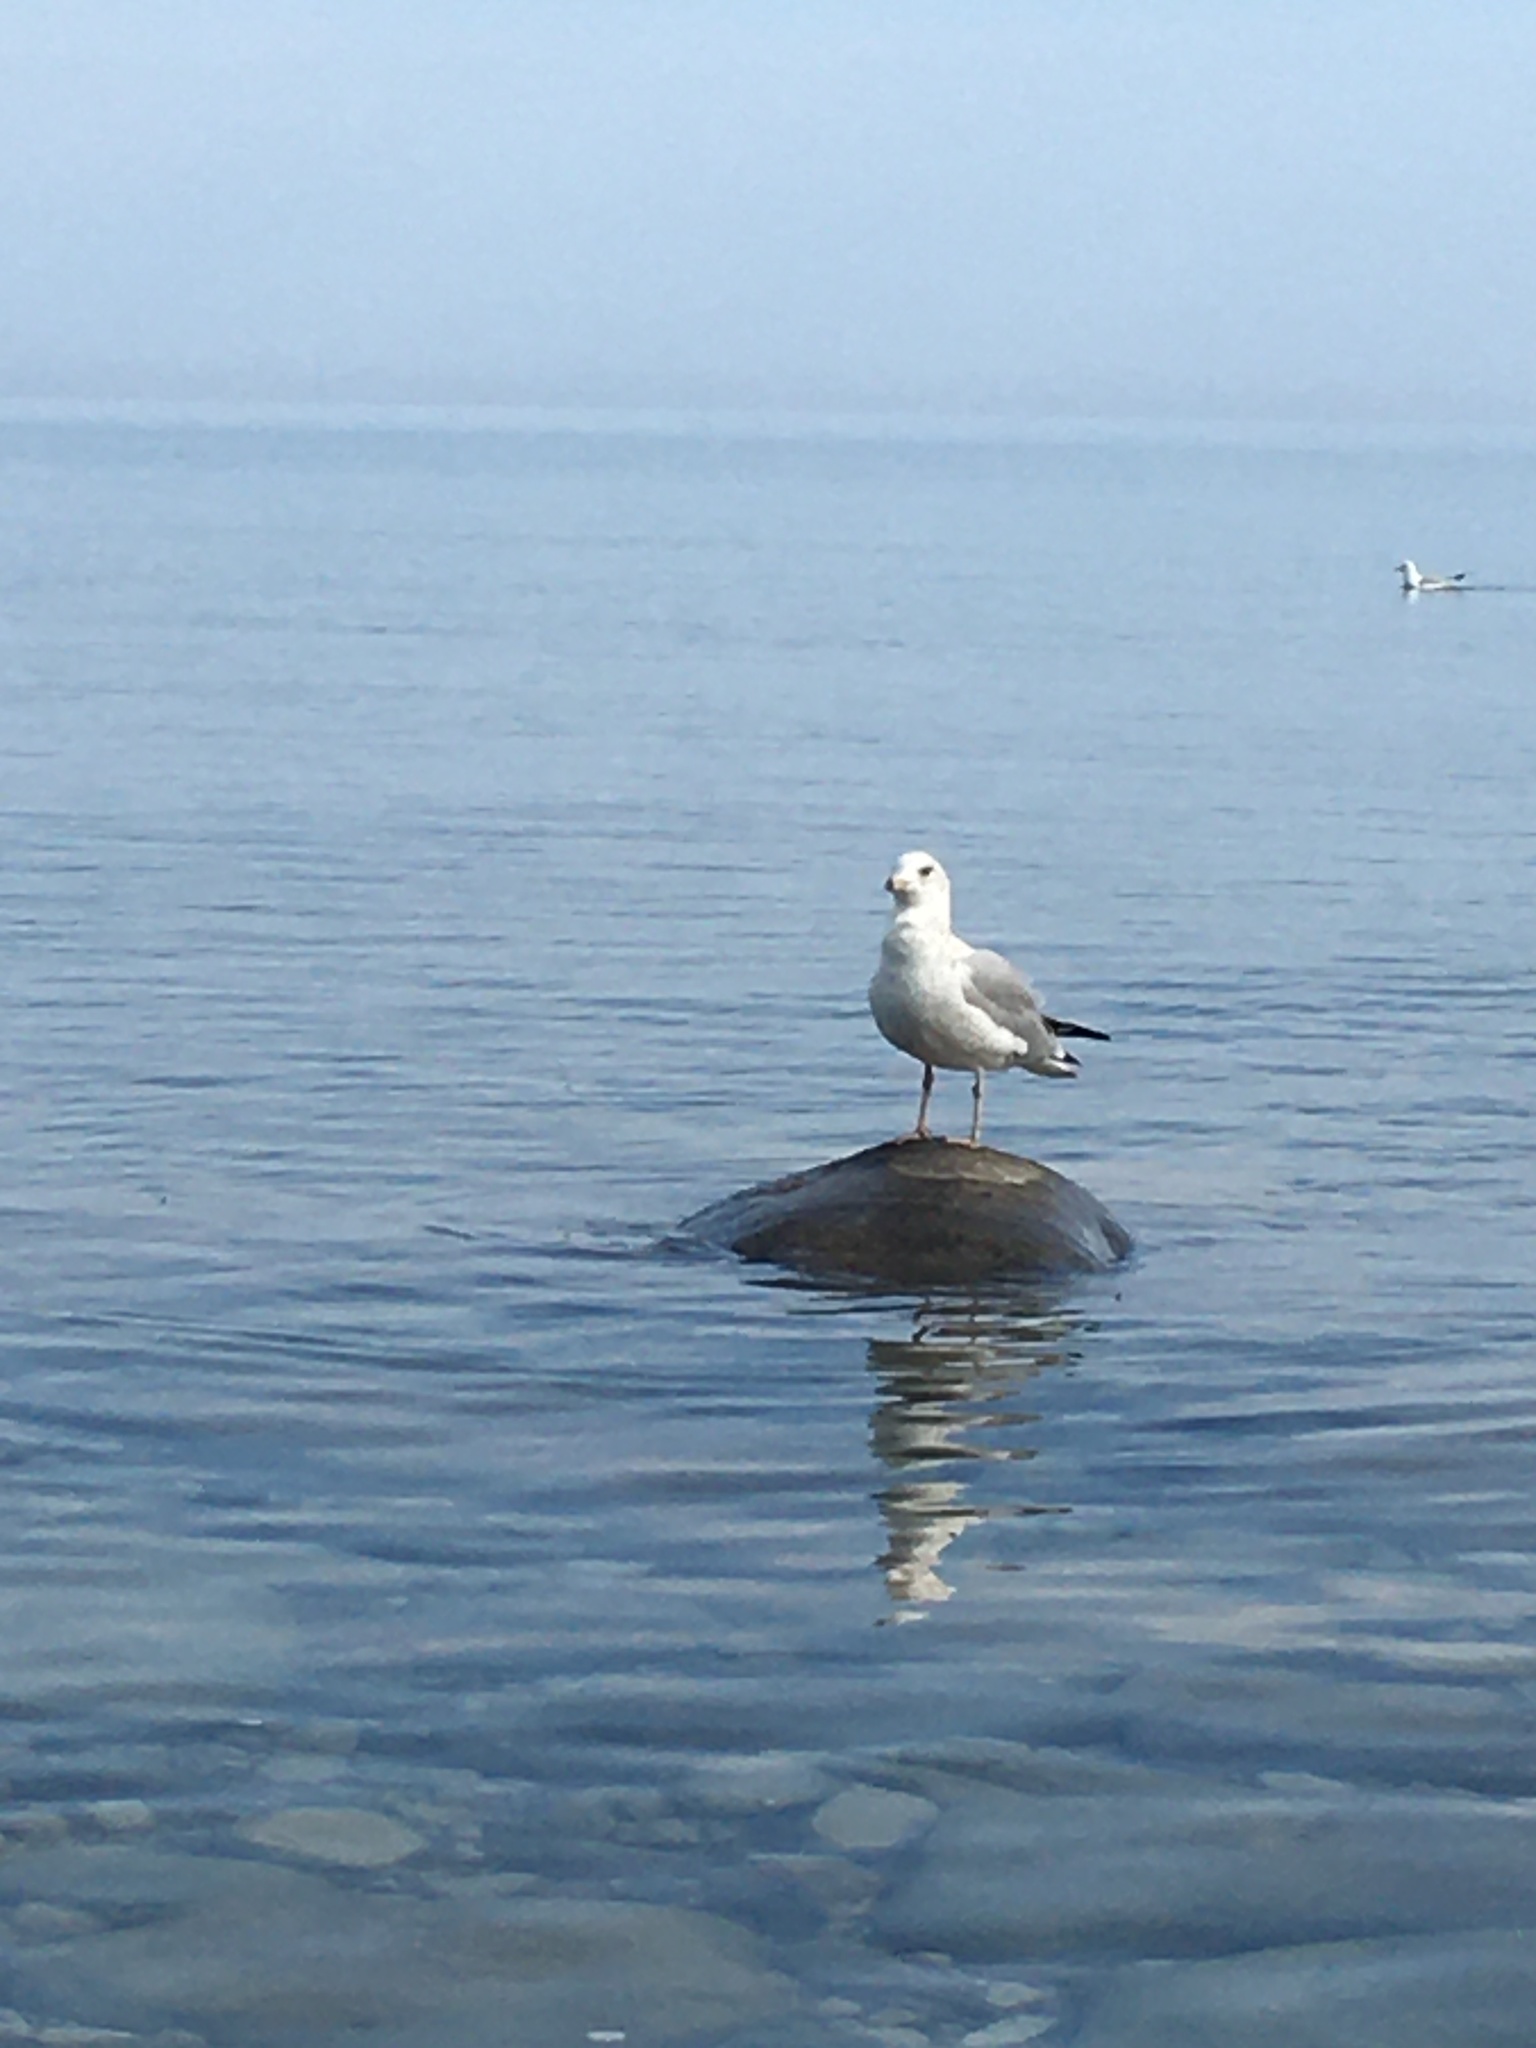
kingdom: Animalia
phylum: Chordata
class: Aves
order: Charadriiformes
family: Laridae
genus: Larus
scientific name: Larus delawarensis
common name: Ring-billed gull
